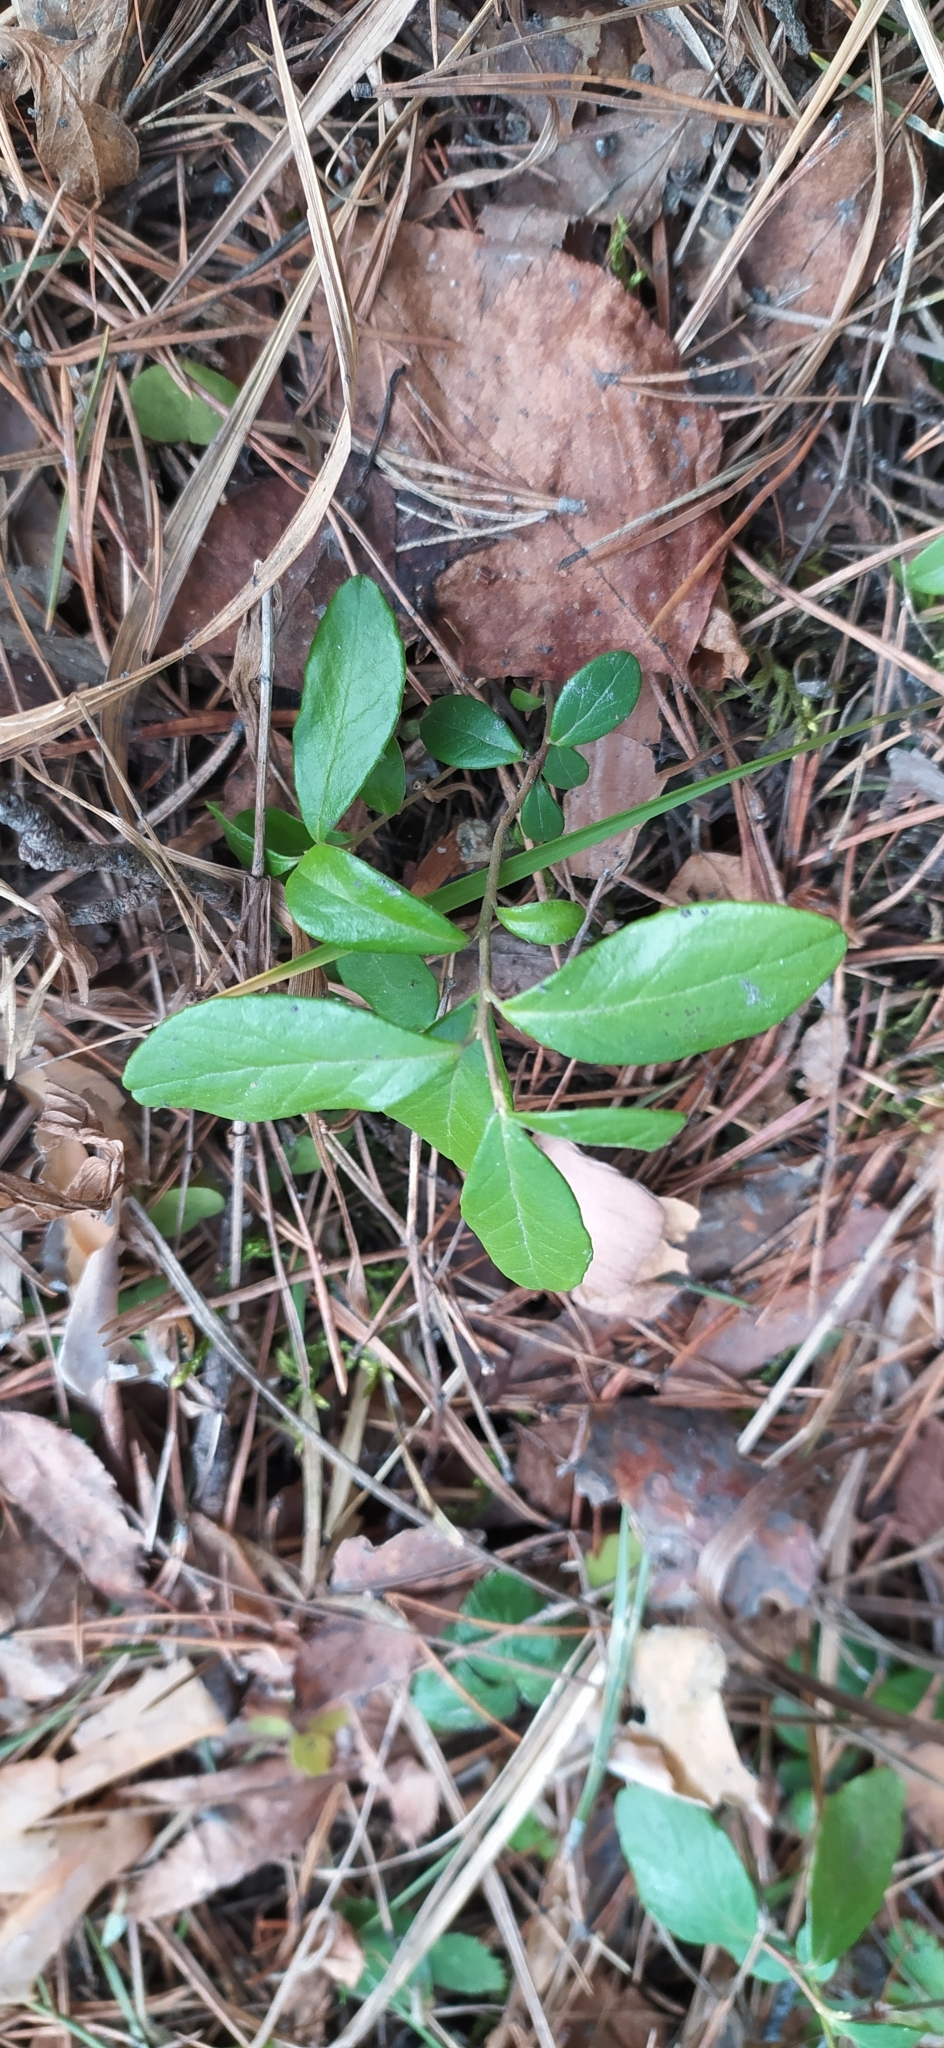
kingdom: Plantae
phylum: Tracheophyta
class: Magnoliopsida
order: Ericales
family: Ericaceae
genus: Vaccinium
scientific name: Vaccinium vitis-idaea
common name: Cowberry
